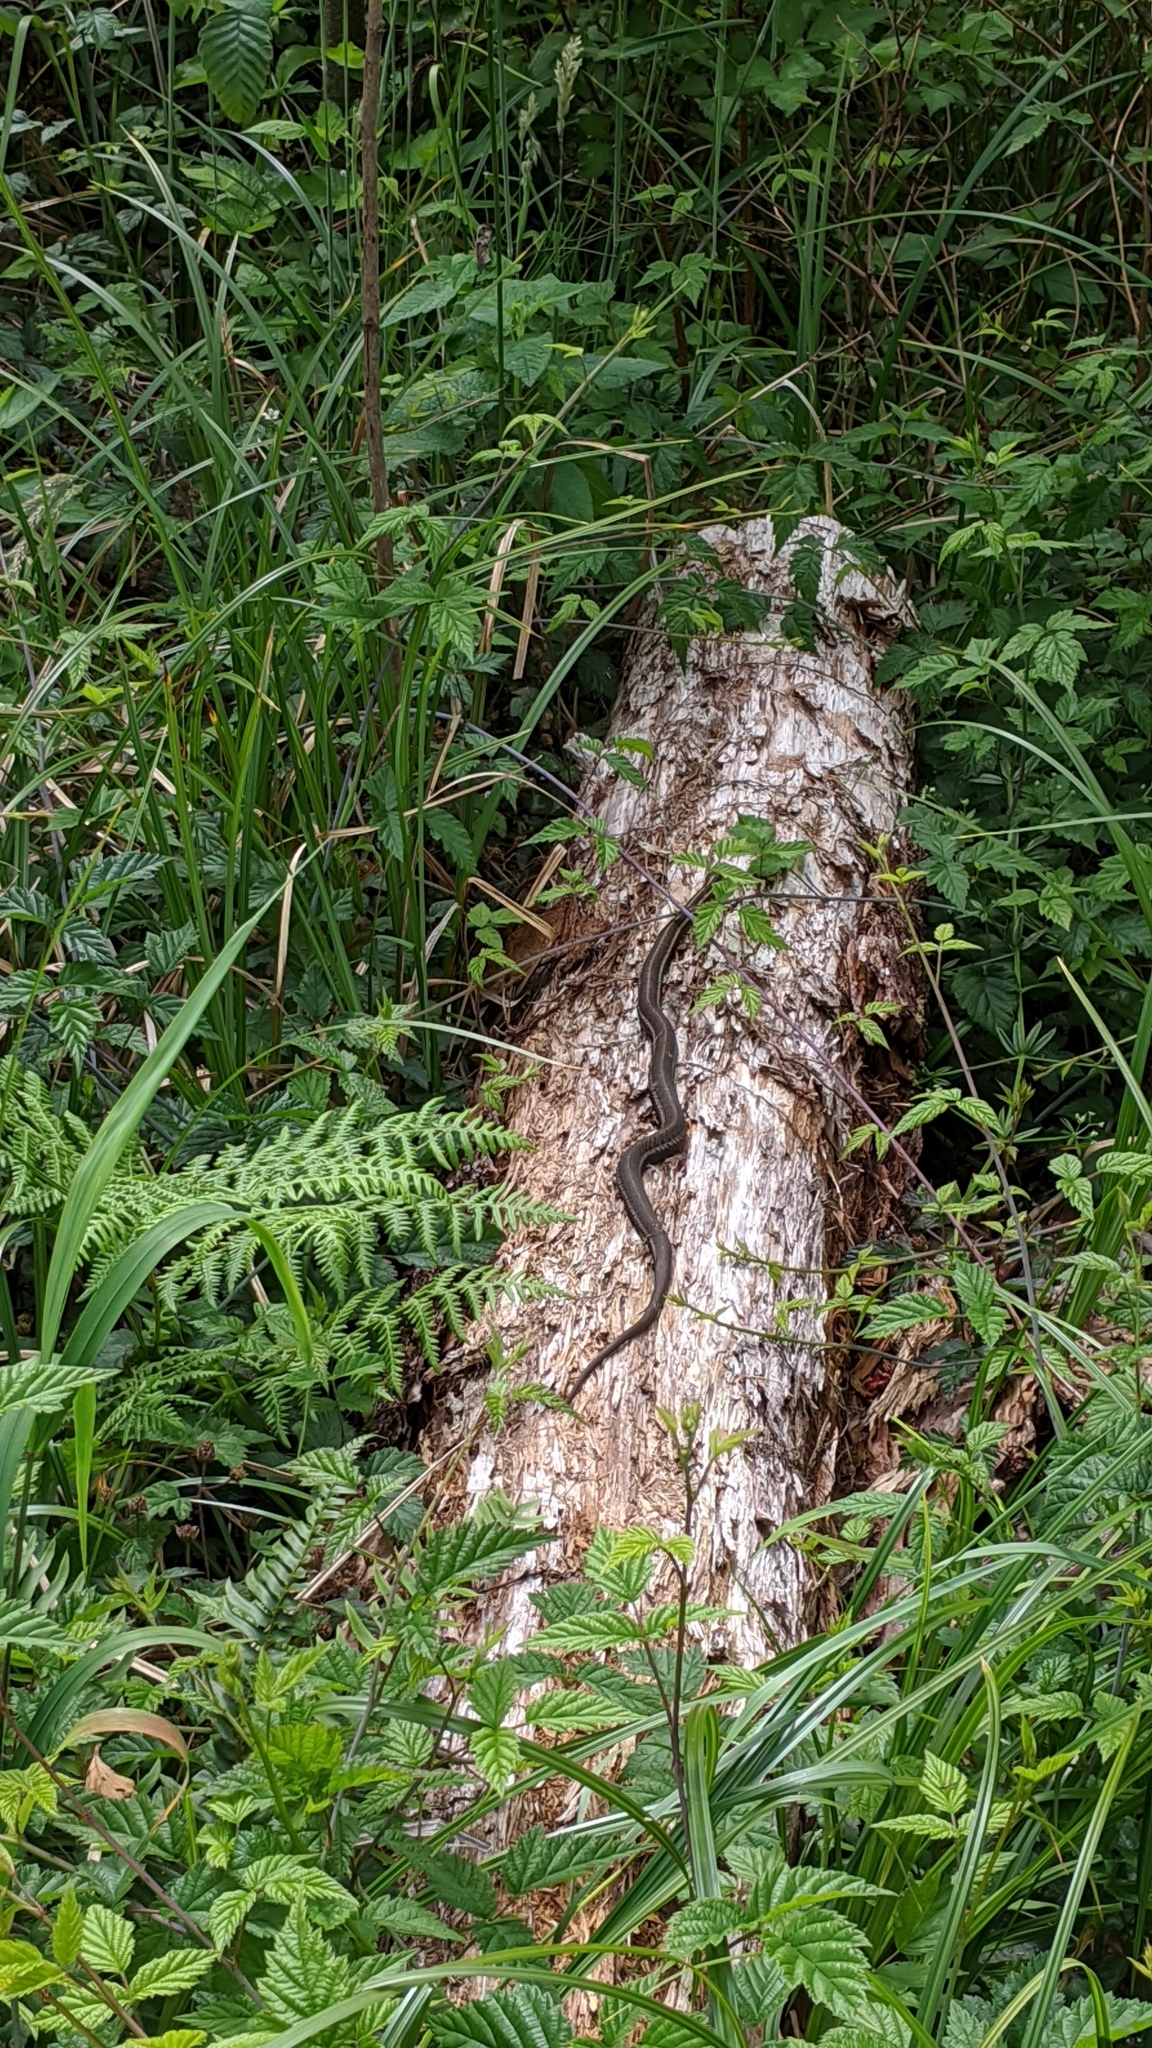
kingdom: Animalia
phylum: Chordata
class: Squamata
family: Colubridae
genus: Thamnophis
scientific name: Thamnophis ordinoides
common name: Northwestern garter snake
